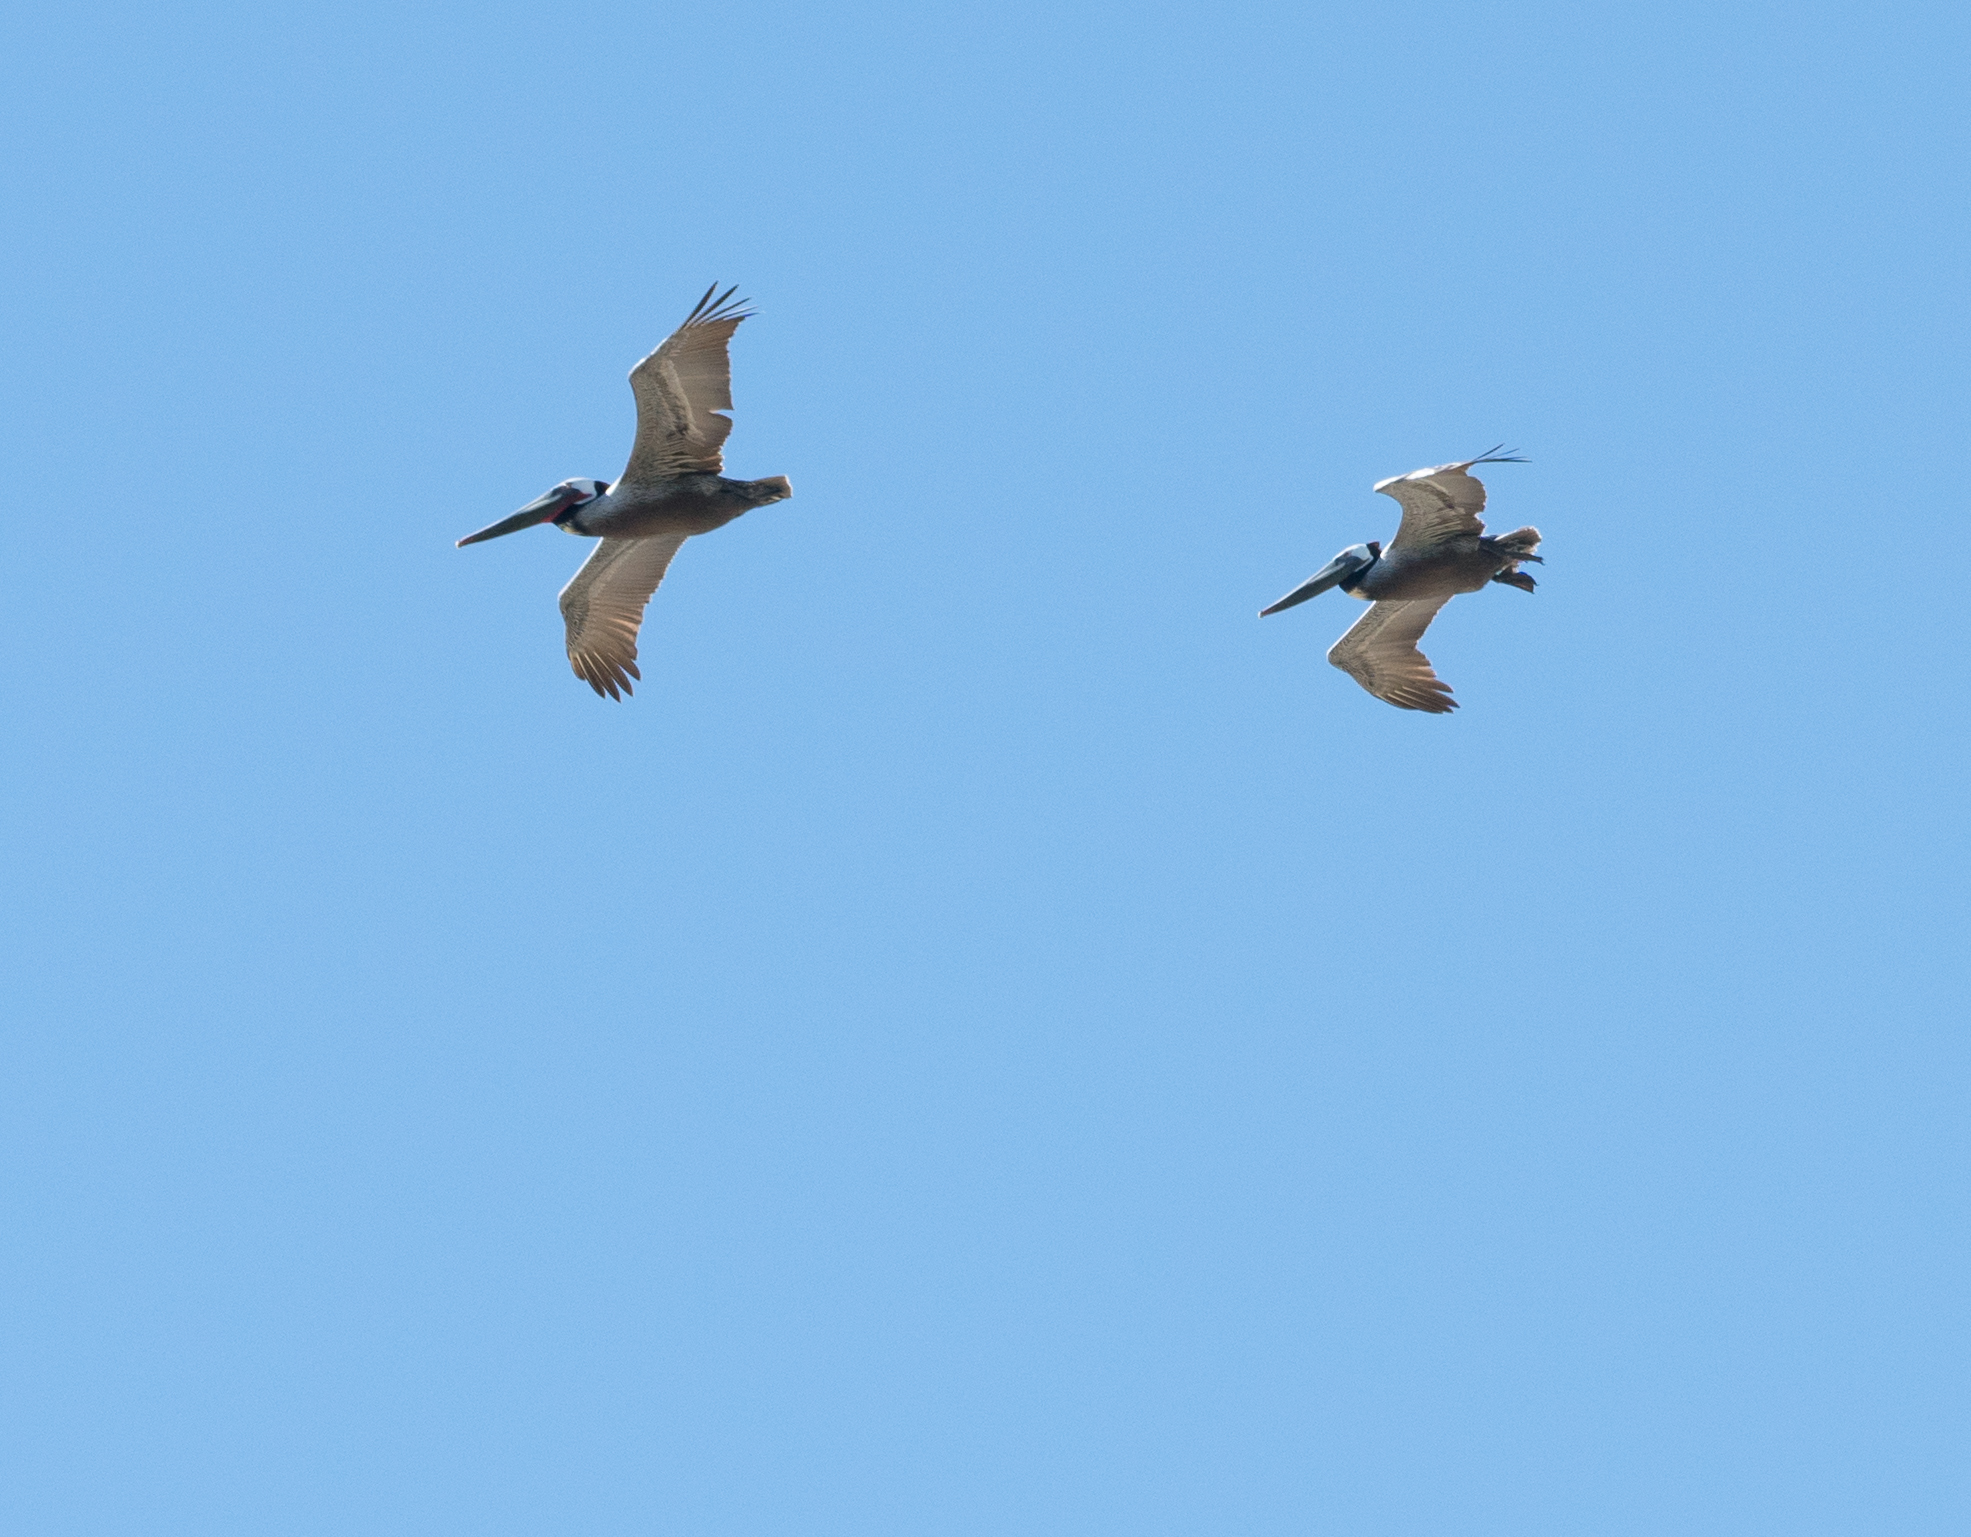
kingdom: Animalia
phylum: Chordata
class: Aves
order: Pelecaniformes
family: Pelecanidae
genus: Pelecanus
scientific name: Pelecanus occidentalis
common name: Brown pelican
